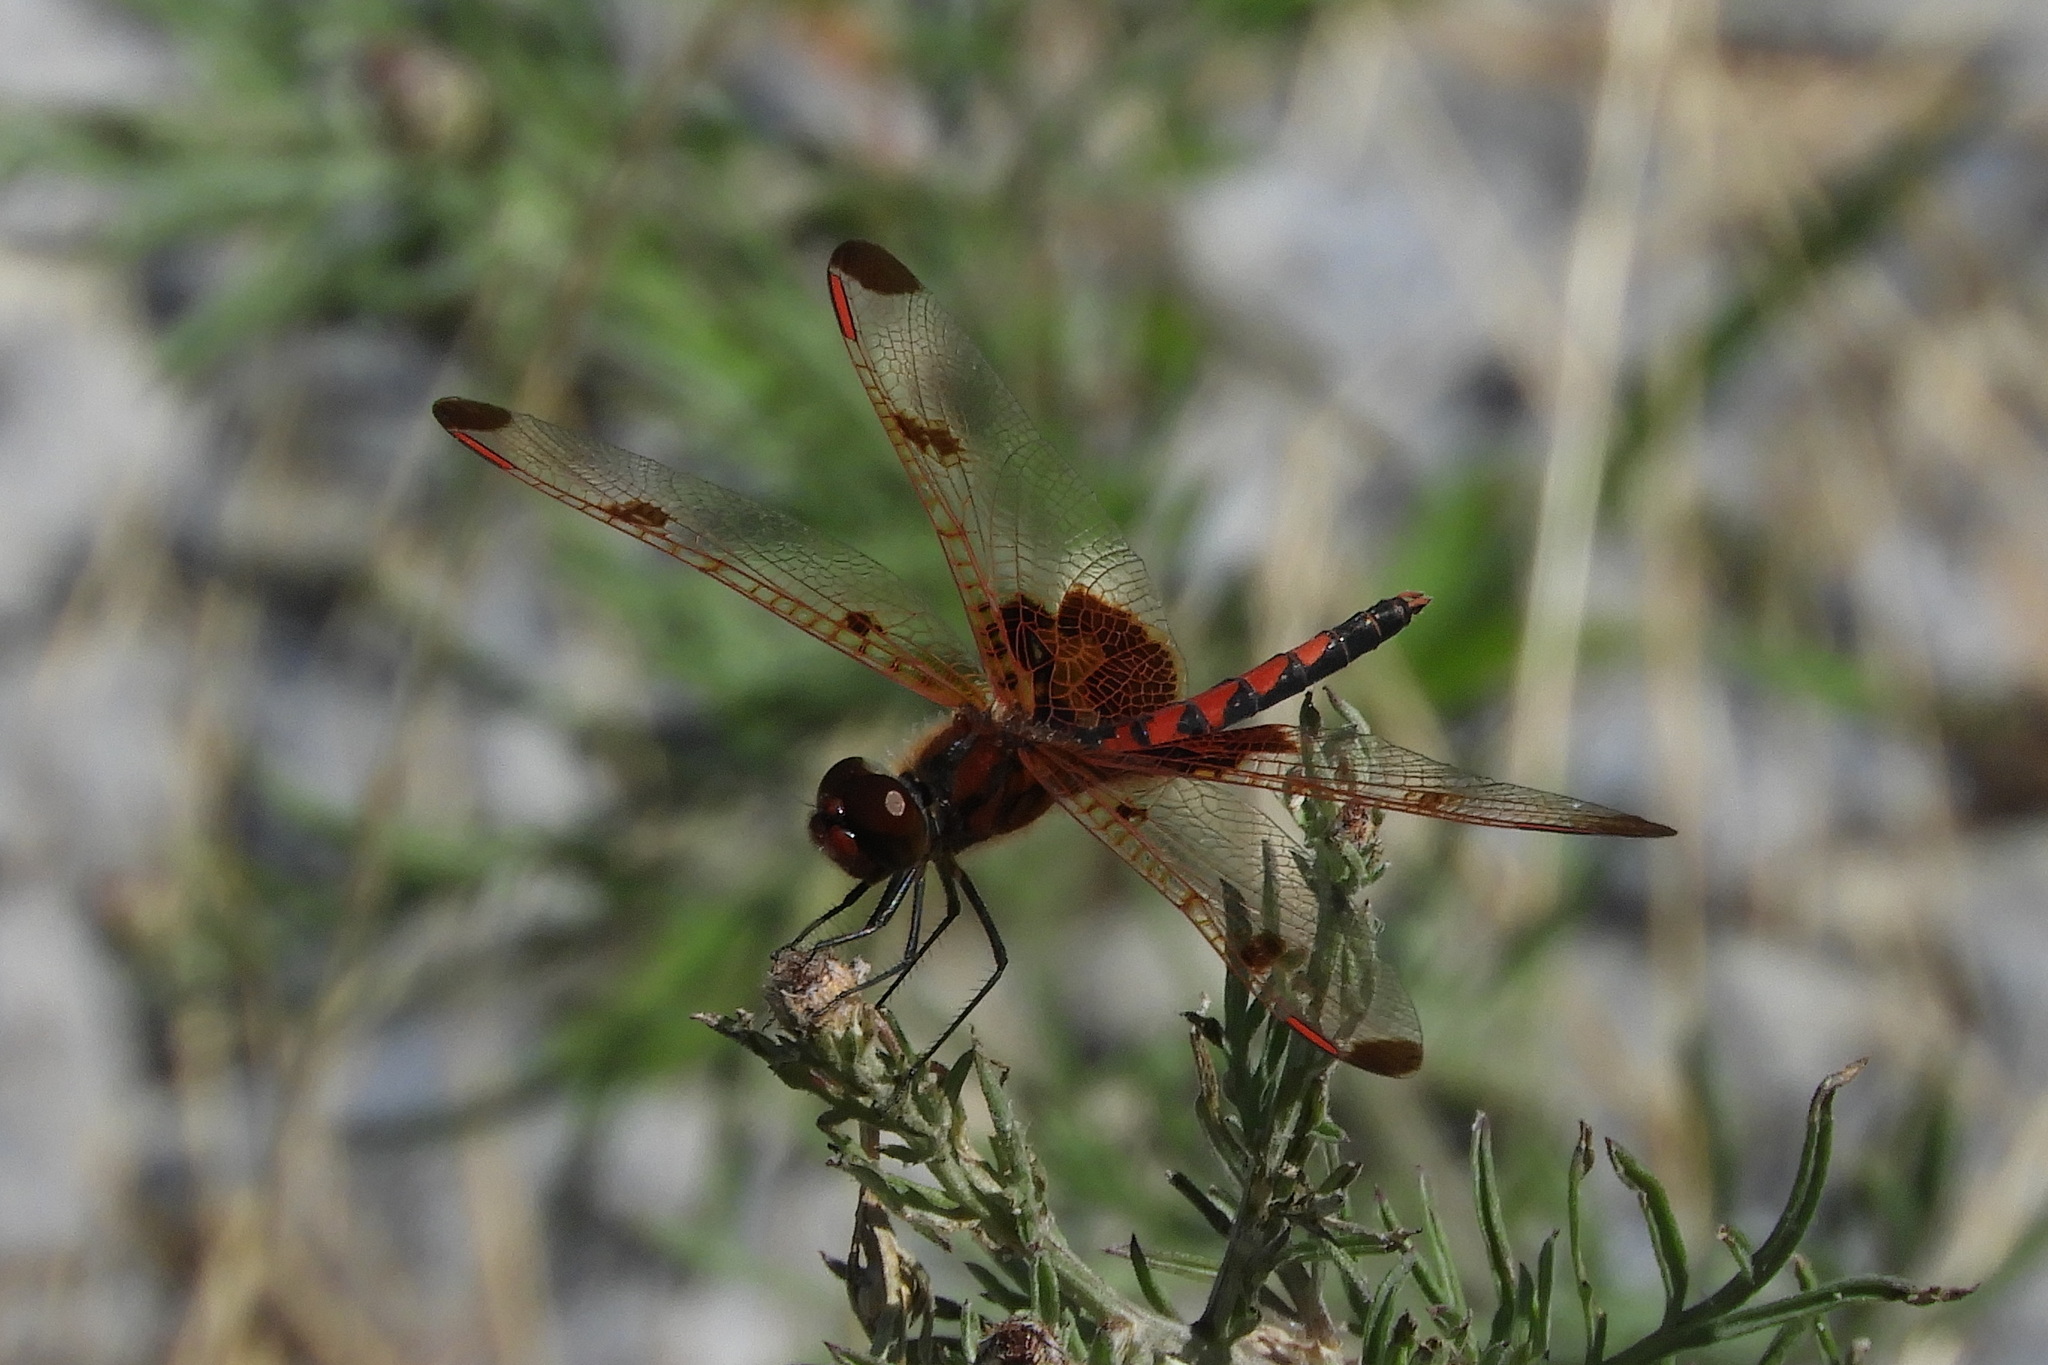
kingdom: Animalia
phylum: Arthropoda
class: Insecta
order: Odonata
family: Libellulidae
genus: Celithemis
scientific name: Celithemis elisa
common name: Calico pennant
